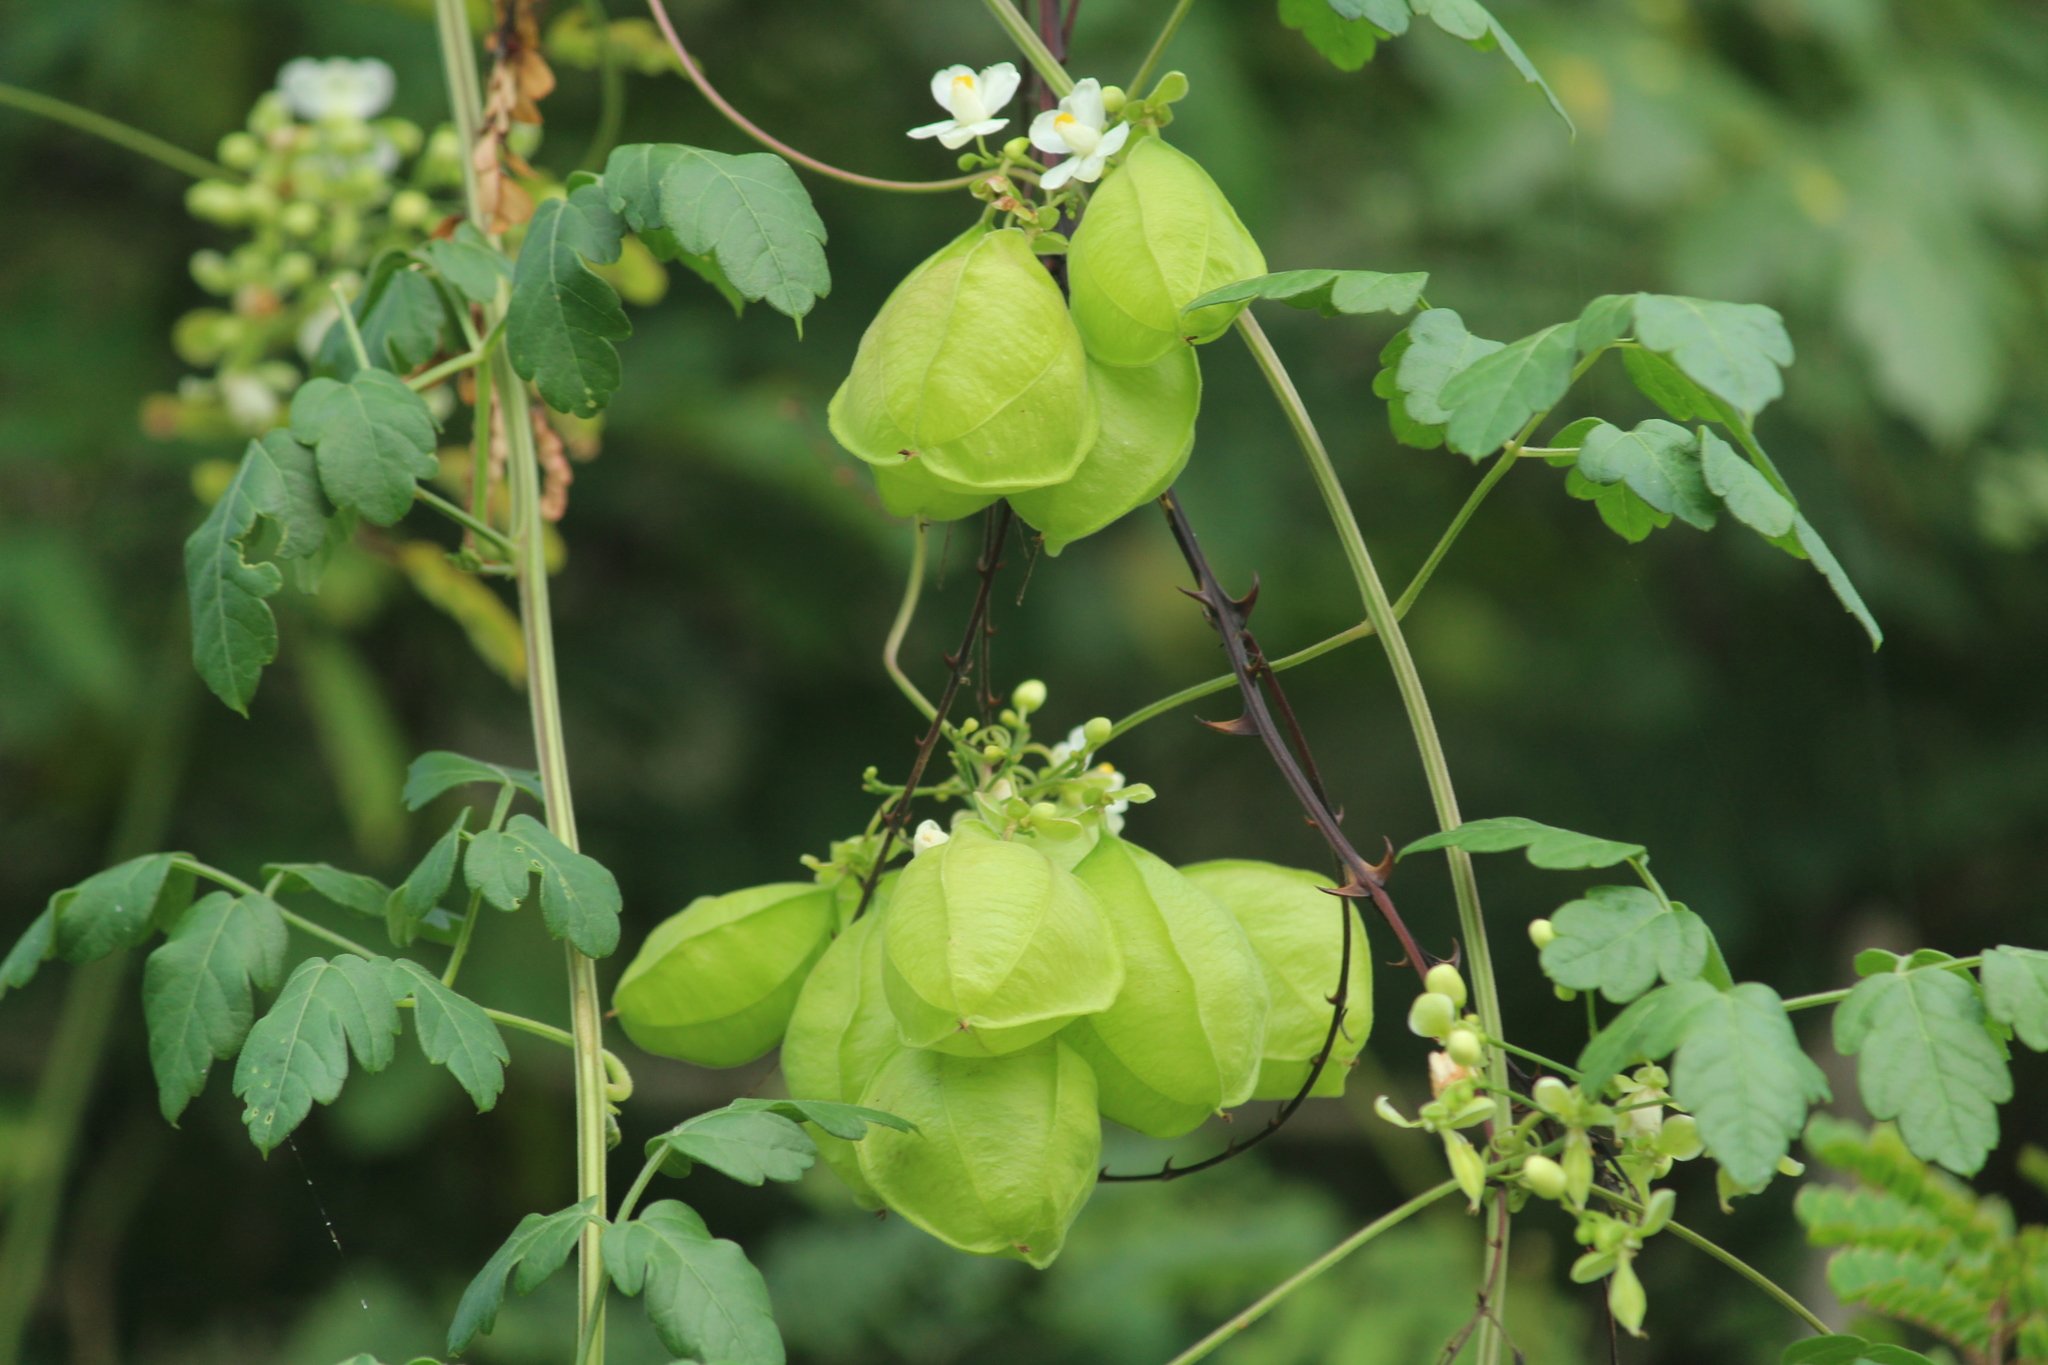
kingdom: Plantae
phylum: Tracheophyta
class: Magnoliopsida
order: Sapindales
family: Sapindaceae
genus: Cardiospermum
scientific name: Cardiospermum halicacabum
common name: Balloon vine
